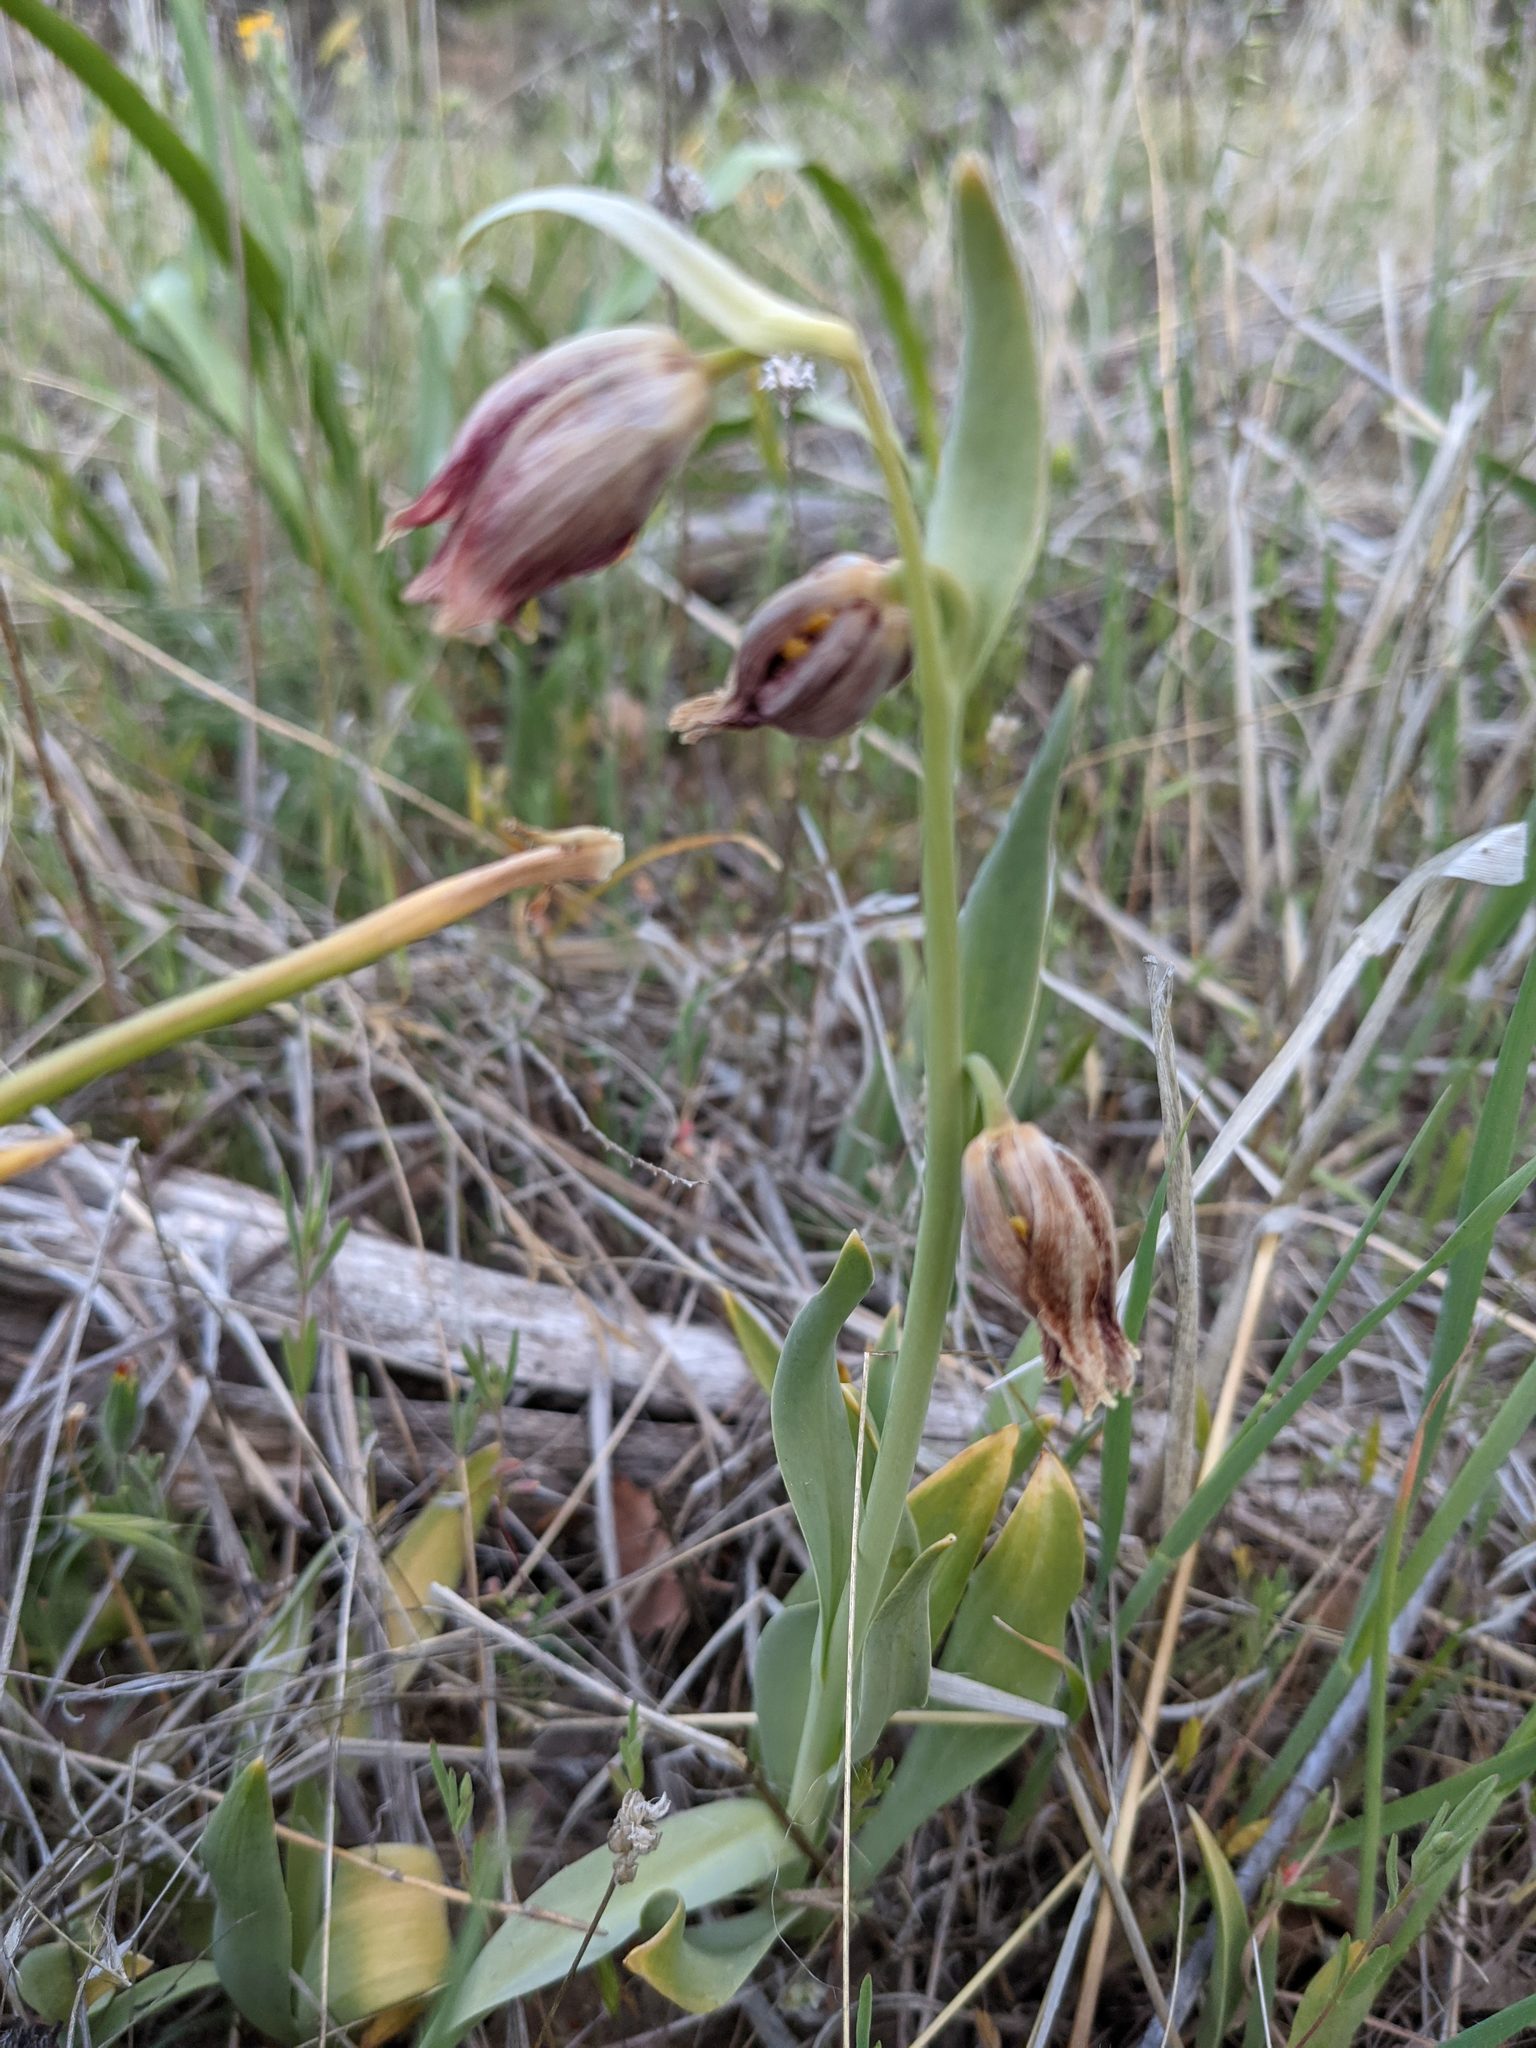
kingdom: Plantae
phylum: Tracheophyta
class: Liliopsida
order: Liliales
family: Liliaceae
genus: Fritillaria
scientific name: Fritillaria agrestis
